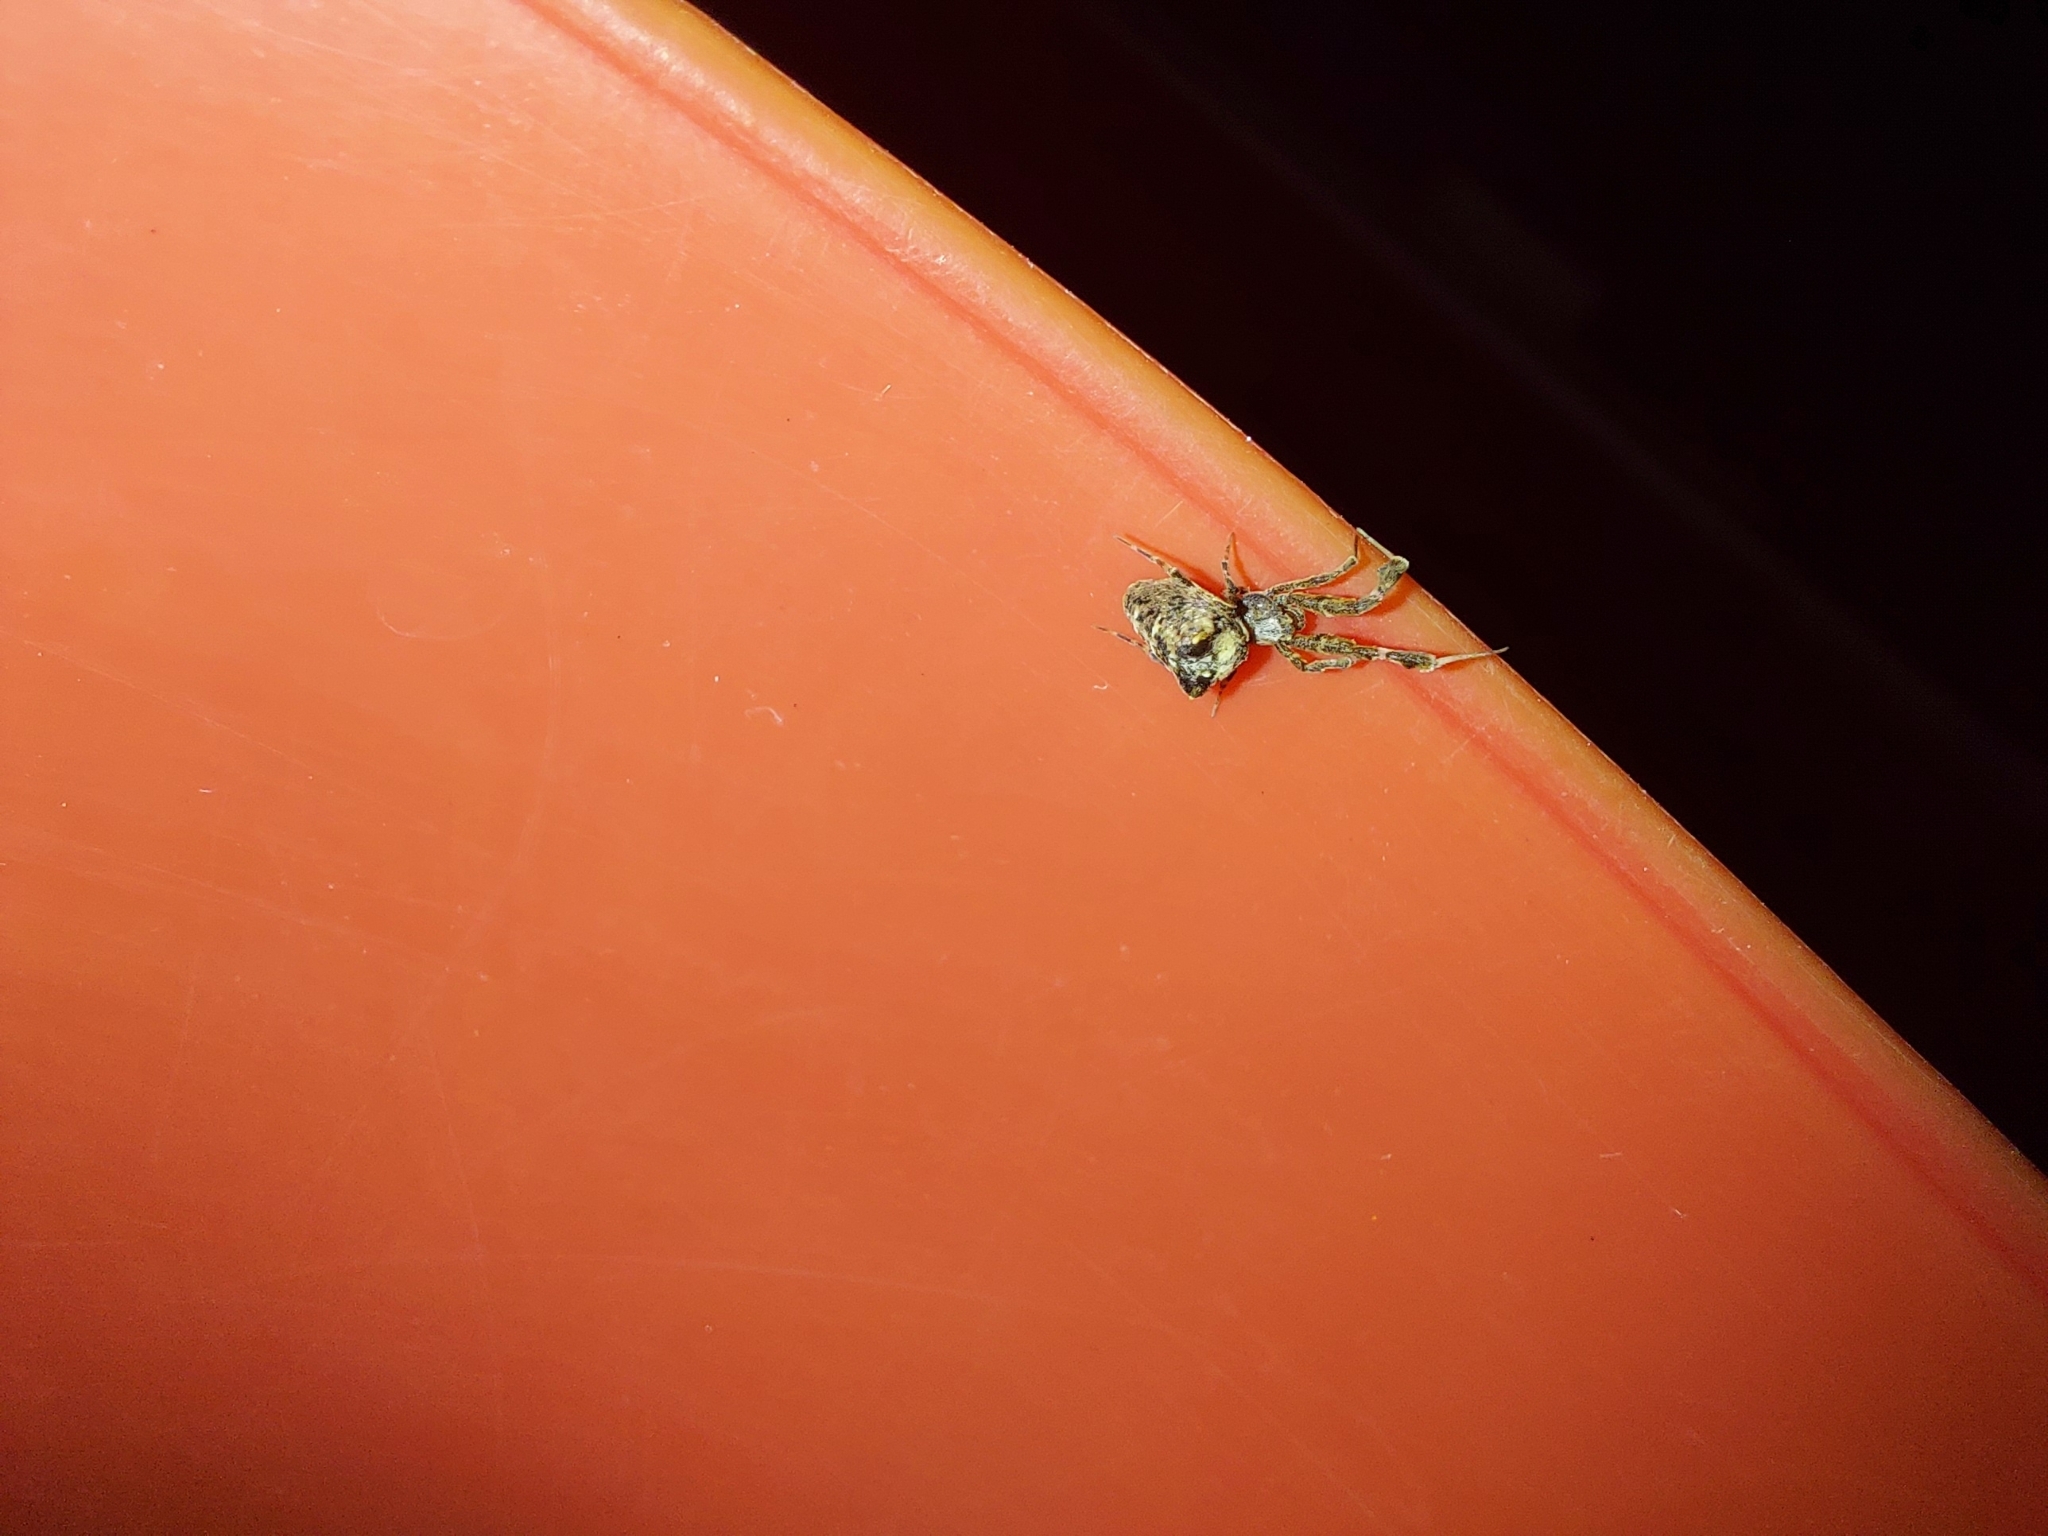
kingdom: Animalia
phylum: Arthropoda
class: Arachnida
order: Araneae
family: Uloboridae
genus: Uloborus
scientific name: Uloborus plumipes
